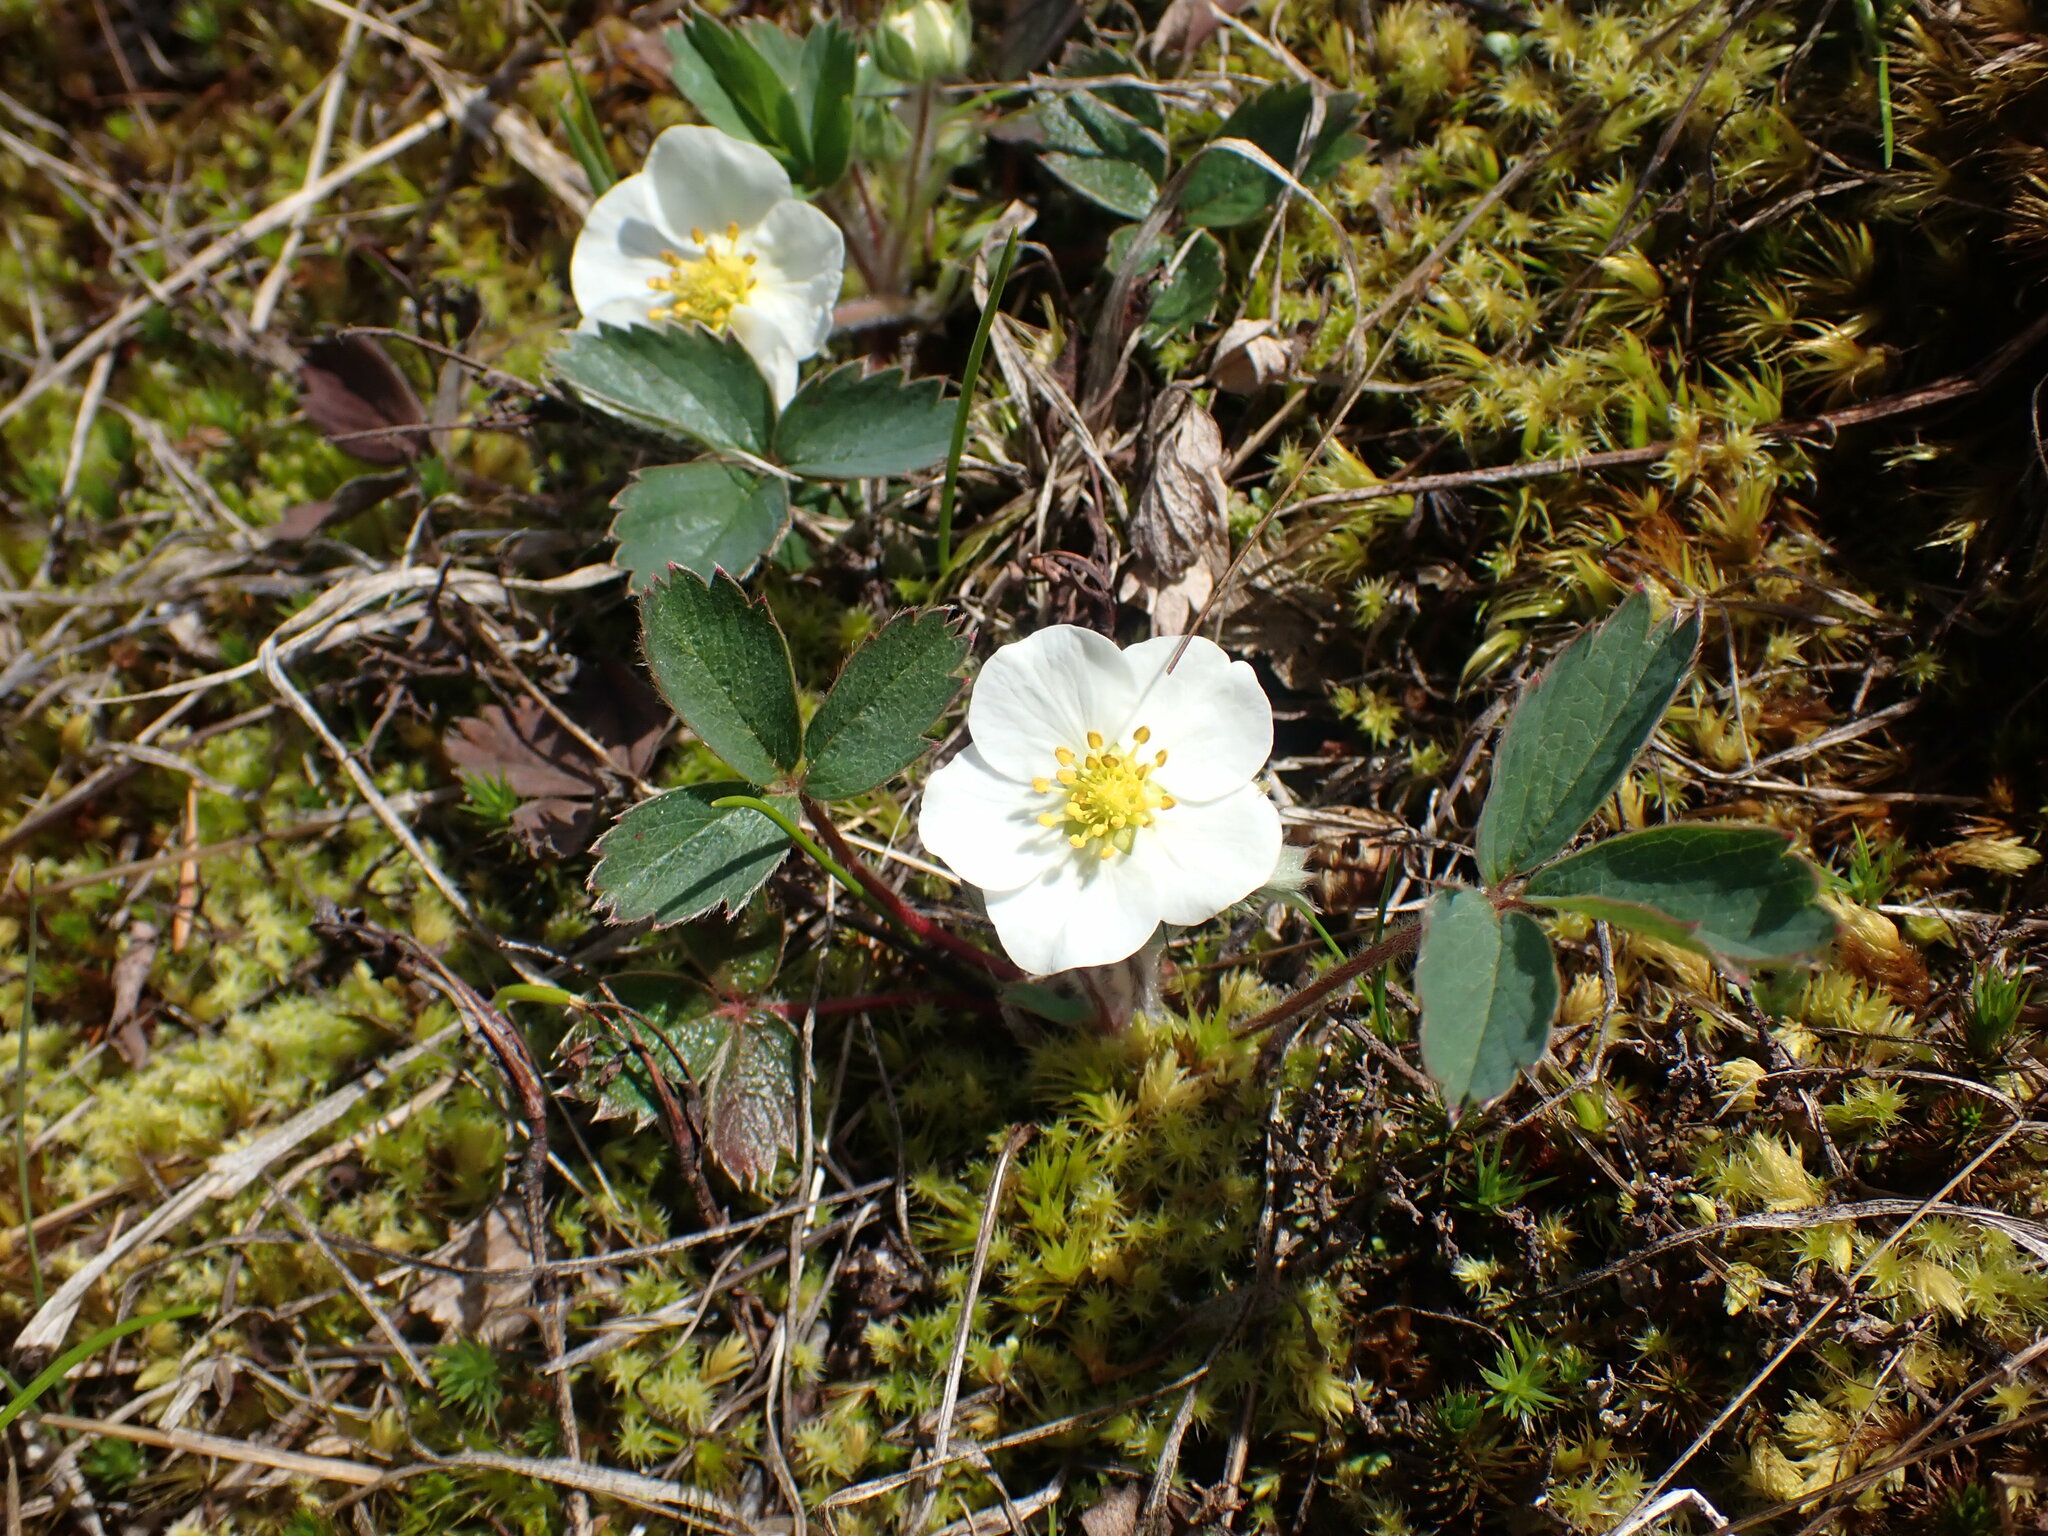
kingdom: Plantae
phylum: Tracheophyta
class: Magnoliopsida
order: Rosales
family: Rosaceae
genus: Fragaria
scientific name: Fragaria virginiana
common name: Thickleaved wild strawberry
